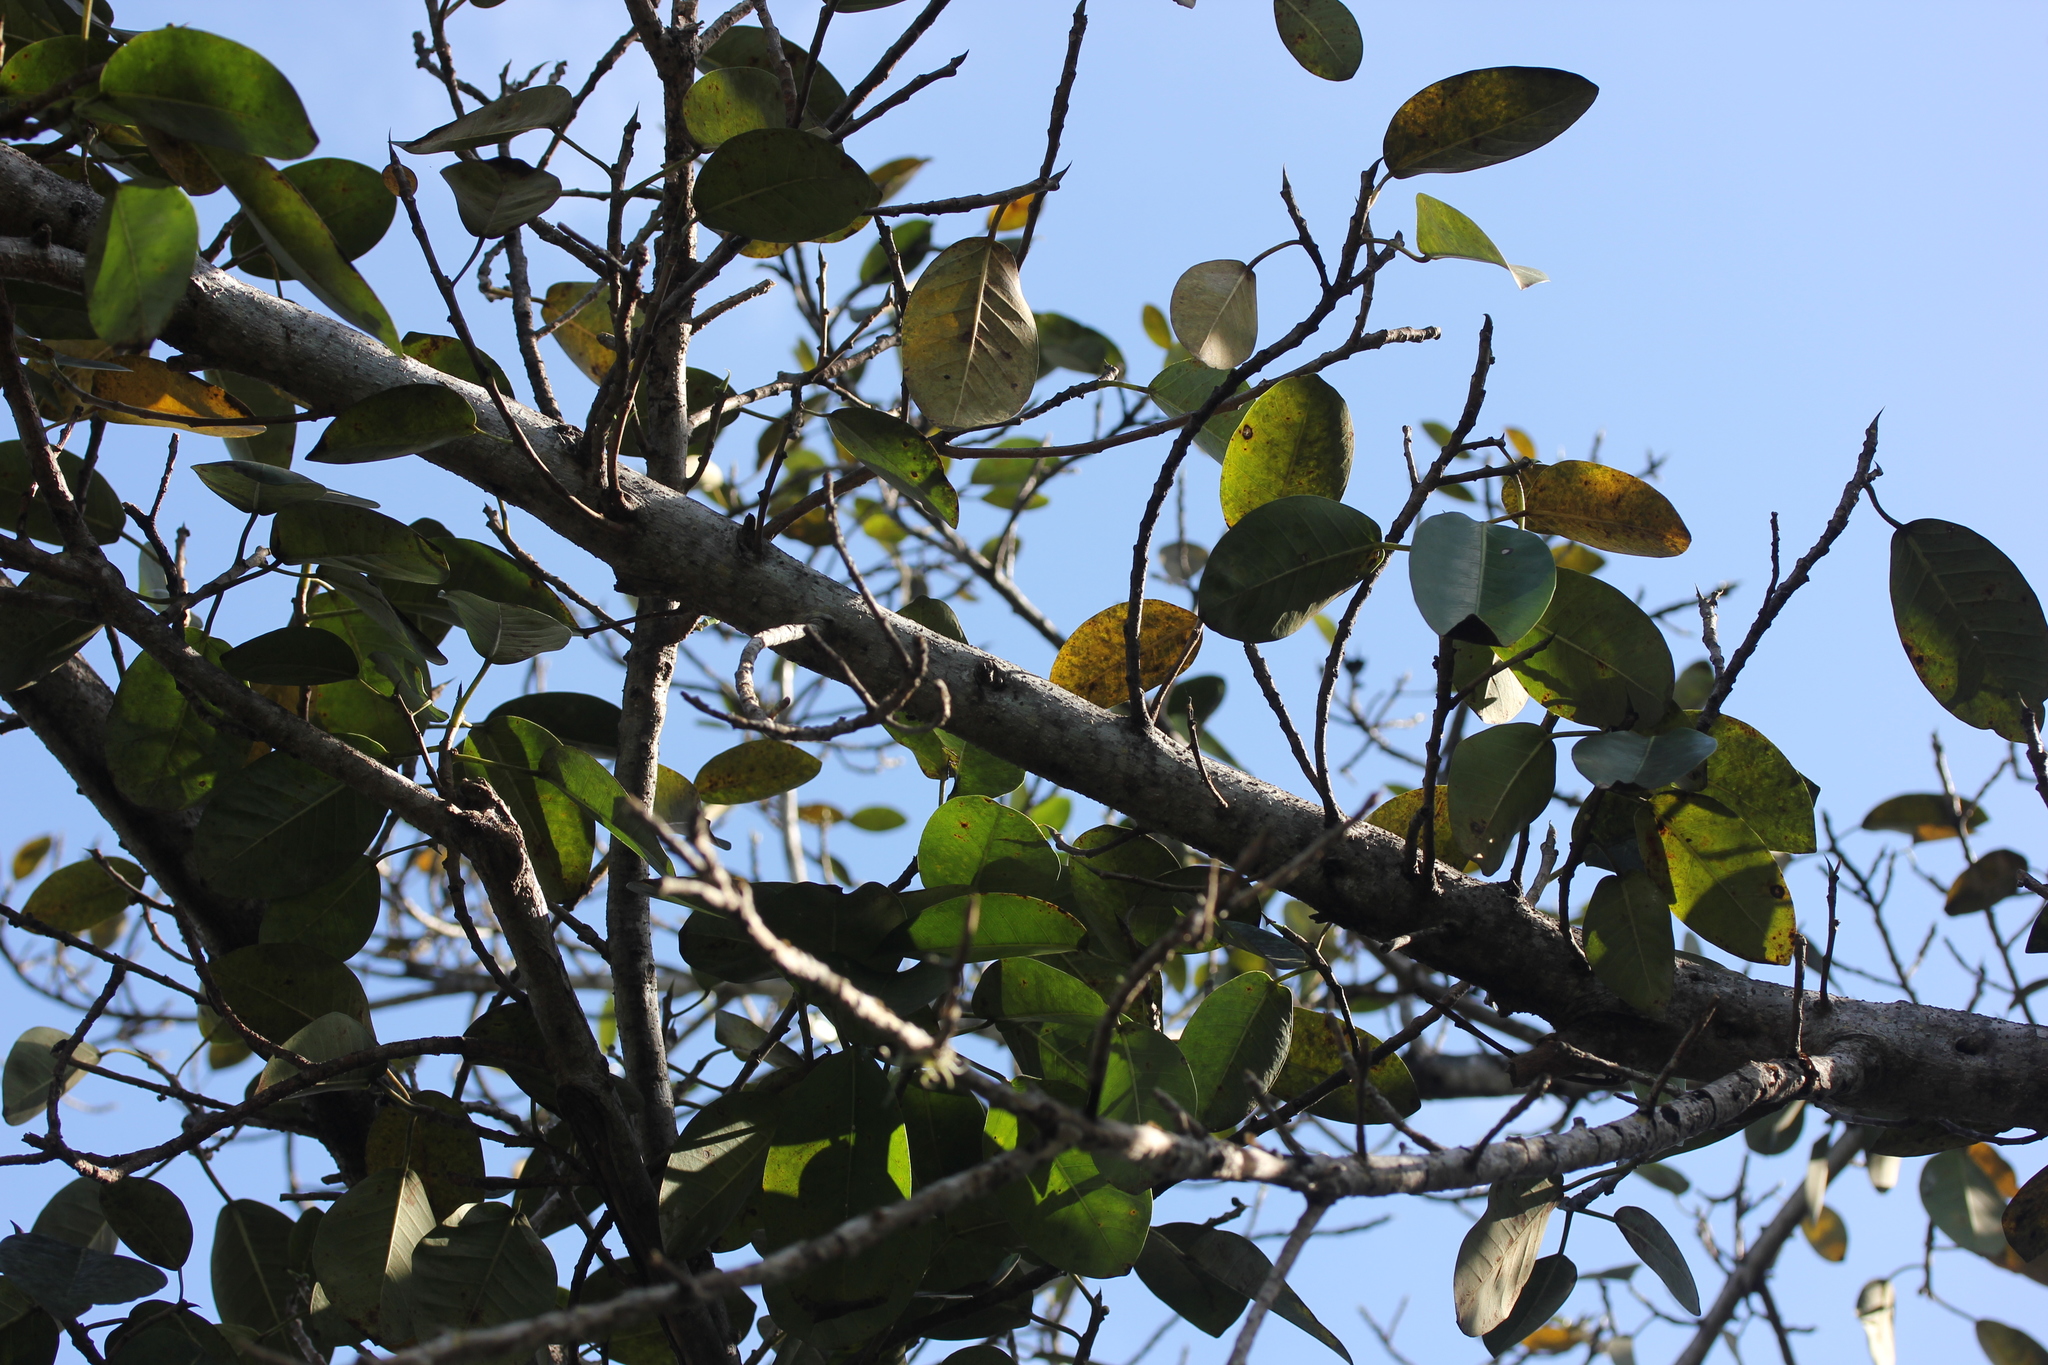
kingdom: Plantae
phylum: Tracheophyta
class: Magnoliopsida
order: Rosales
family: Moraceae
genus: Ficus
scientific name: Ficus citrifolia
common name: Strangler fig
